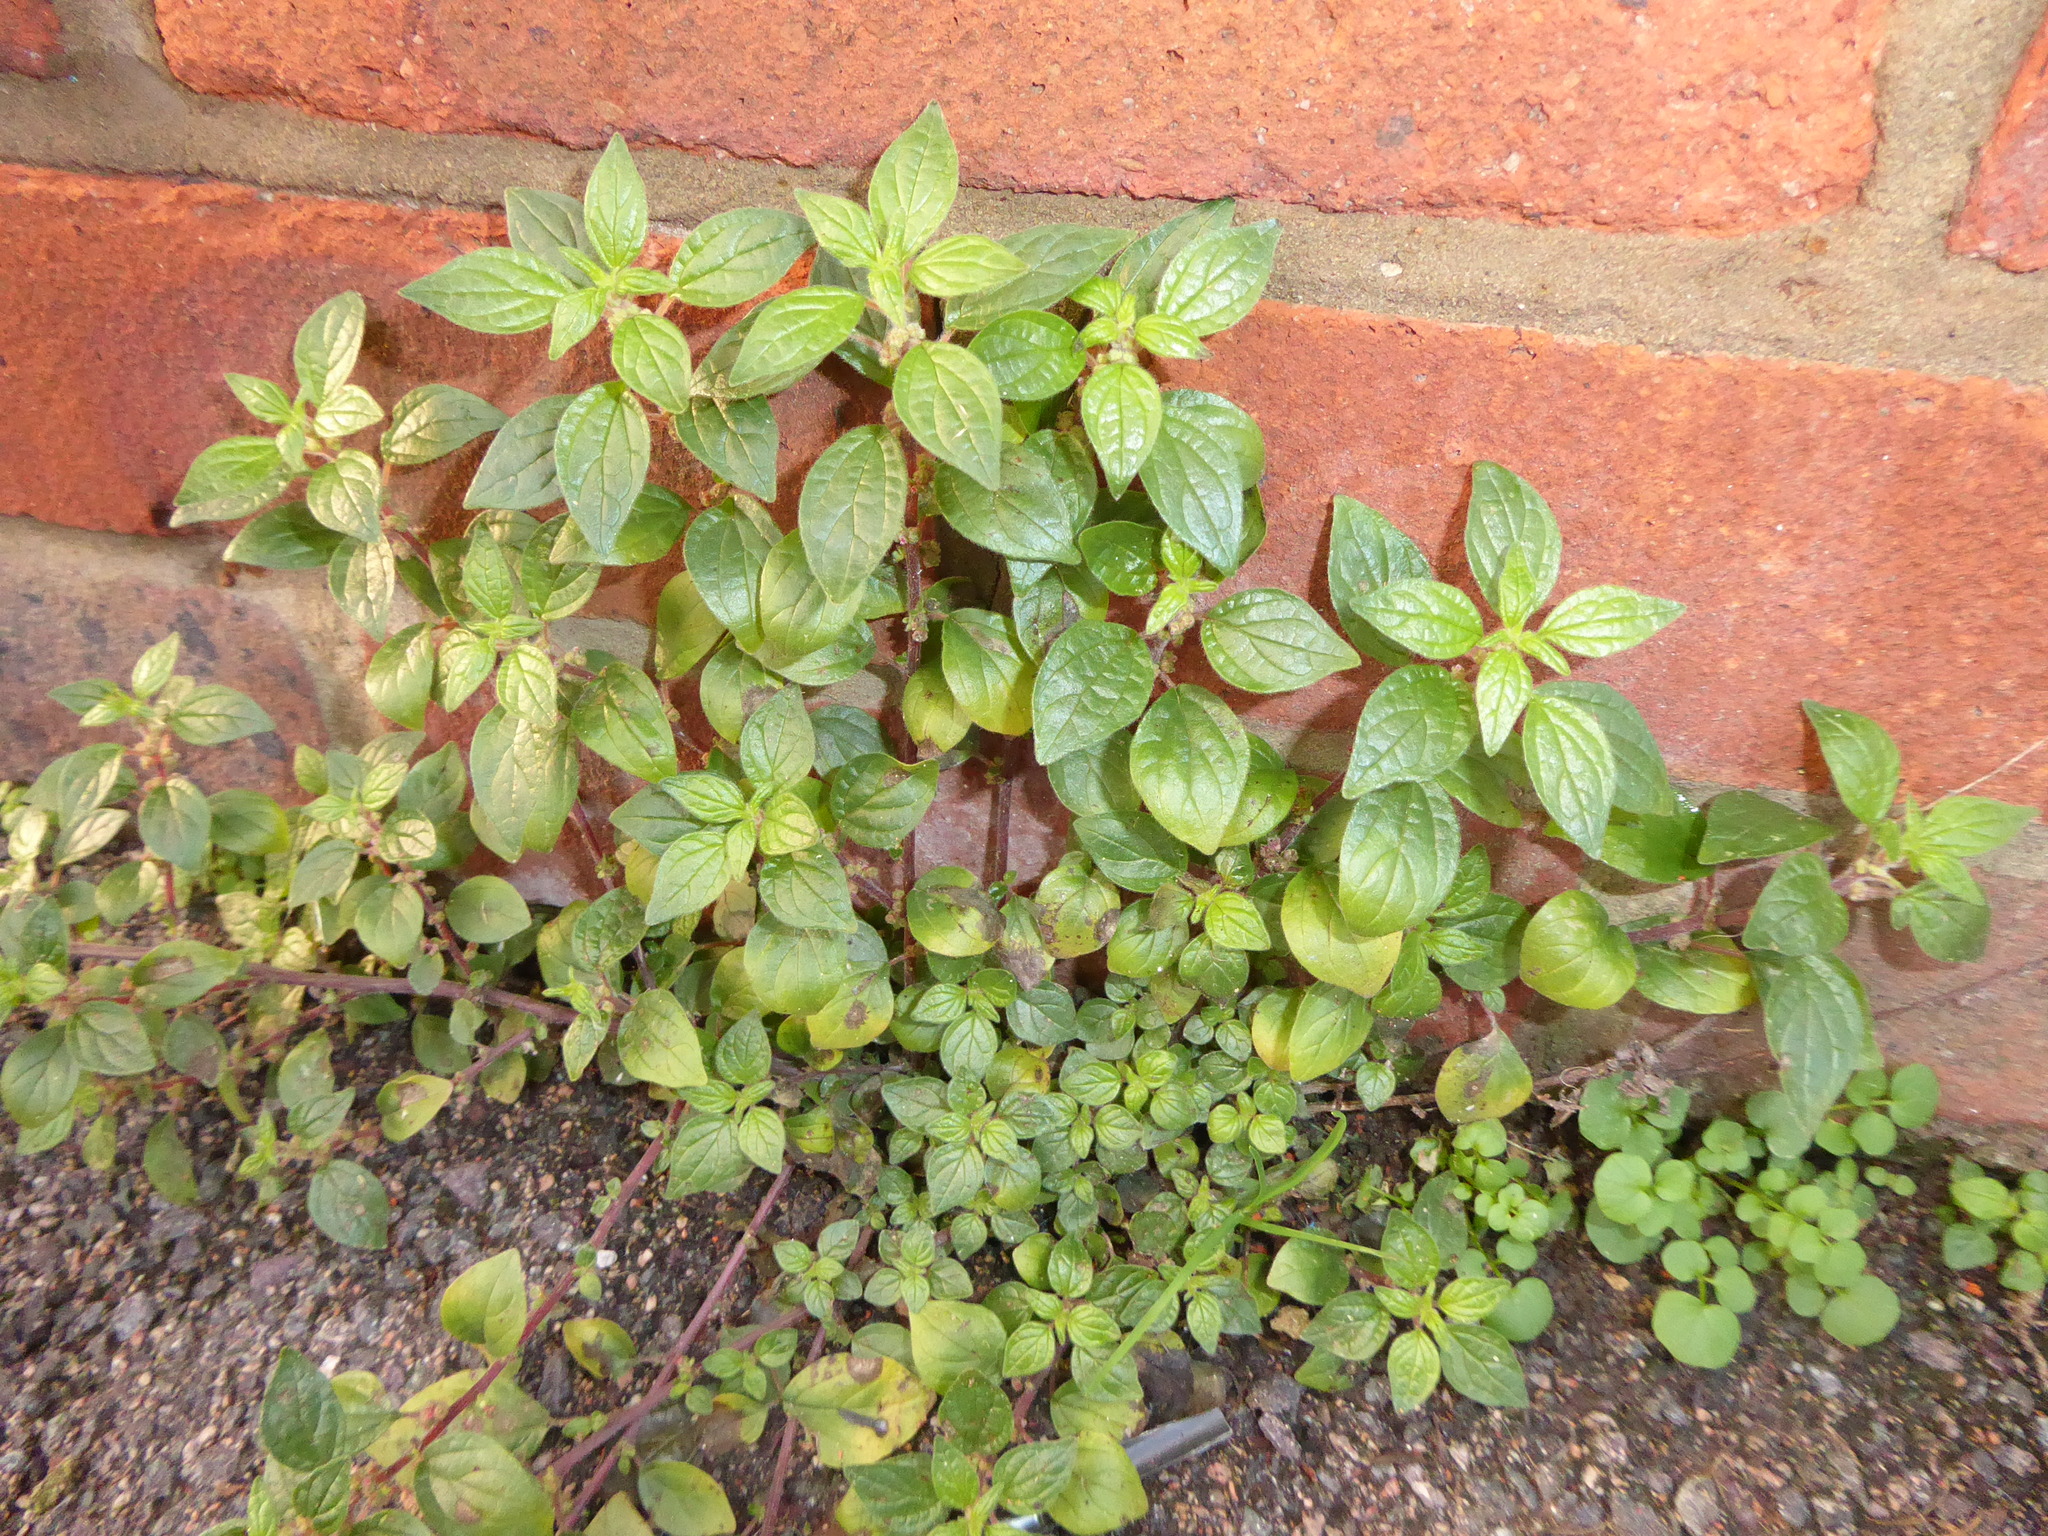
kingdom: Plantae
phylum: Tracheophyta
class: Magnoliopsida
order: Rosales
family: Urticaceae
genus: Parietaria
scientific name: Parietaria judaica
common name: Pellitory-of-the-wall
